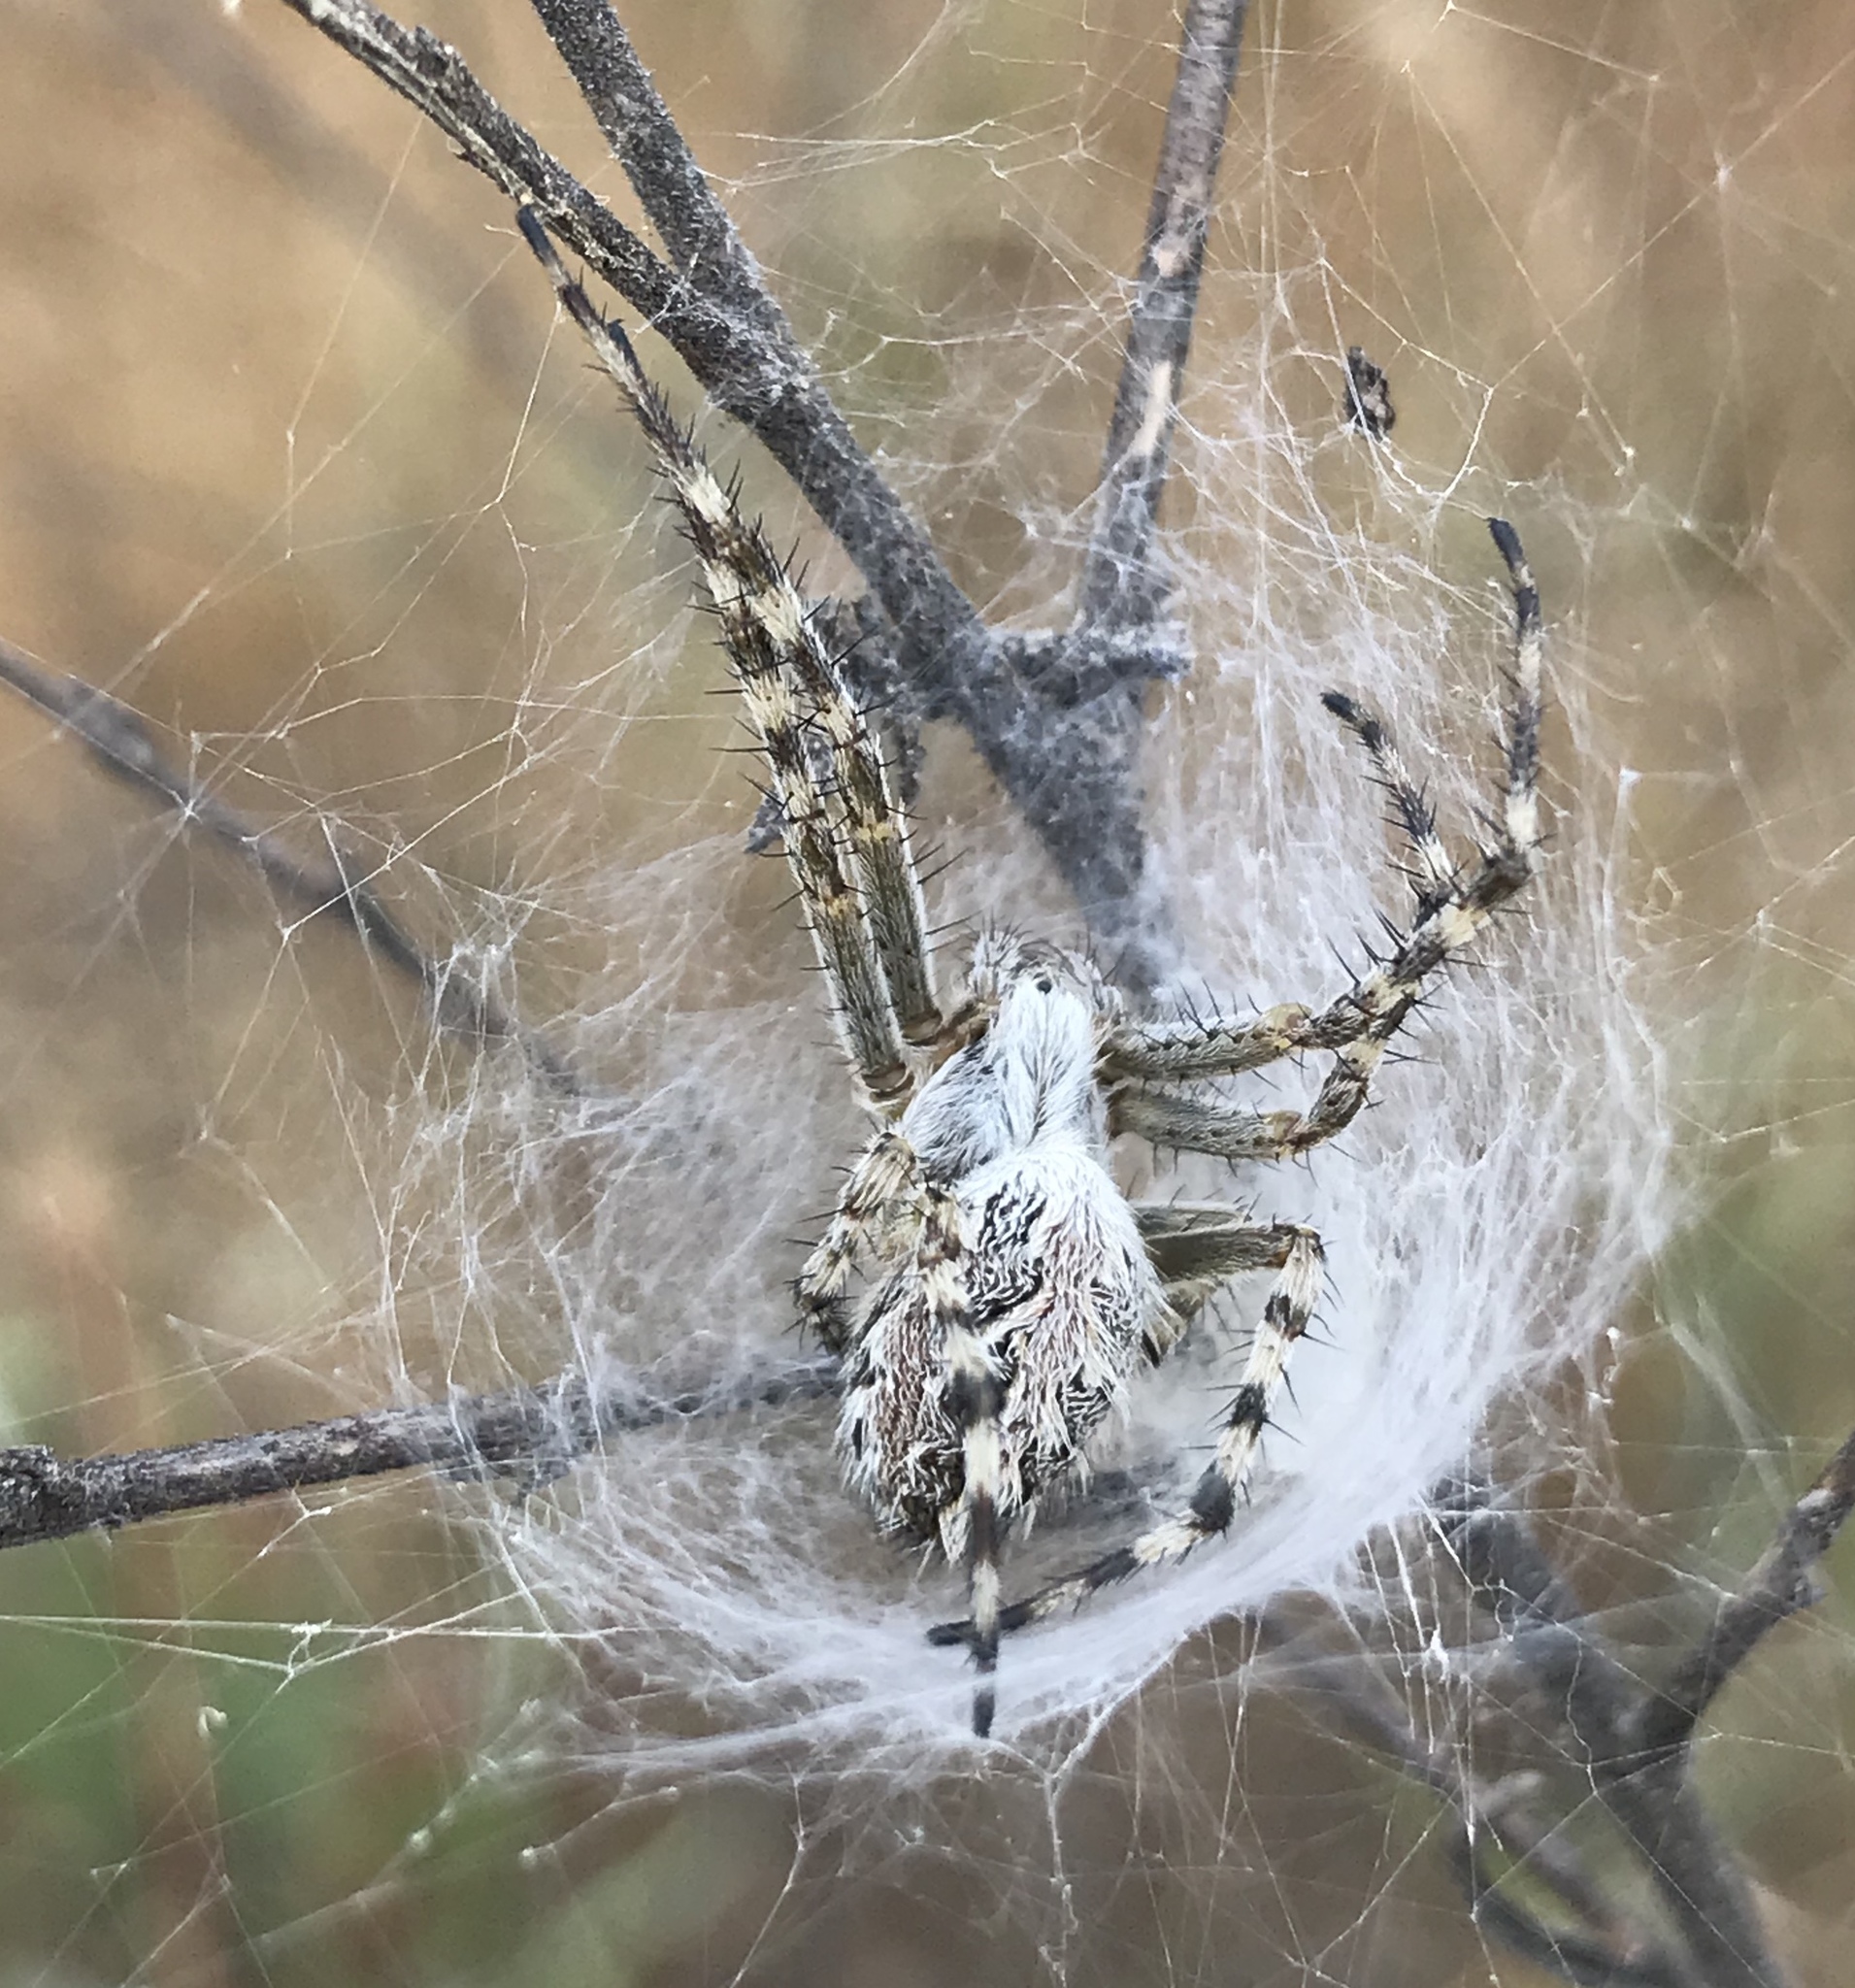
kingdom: Animalia
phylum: Arthropoda
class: Arachnida
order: Araneae
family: Araneidae
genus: Aculepeira
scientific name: Aculepeira packardi
